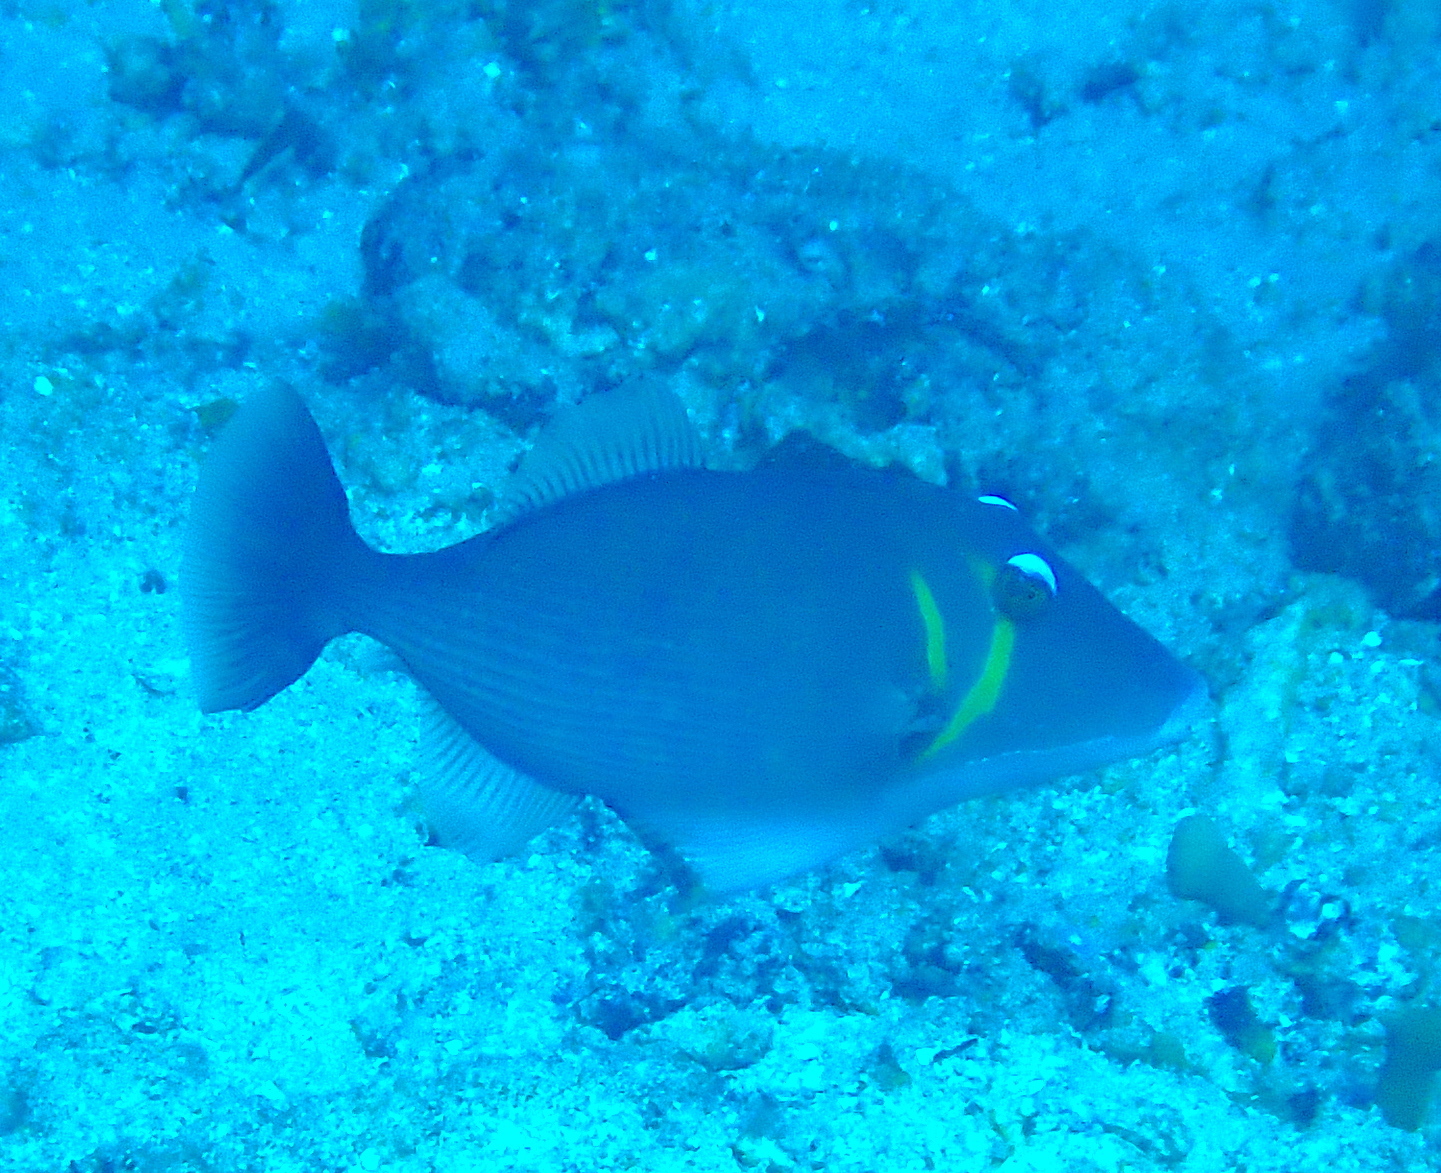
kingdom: Animalia
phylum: Chordata
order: Tetraodontiformes
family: Balistidae
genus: Sufflamen
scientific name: Sufflamen bursa
